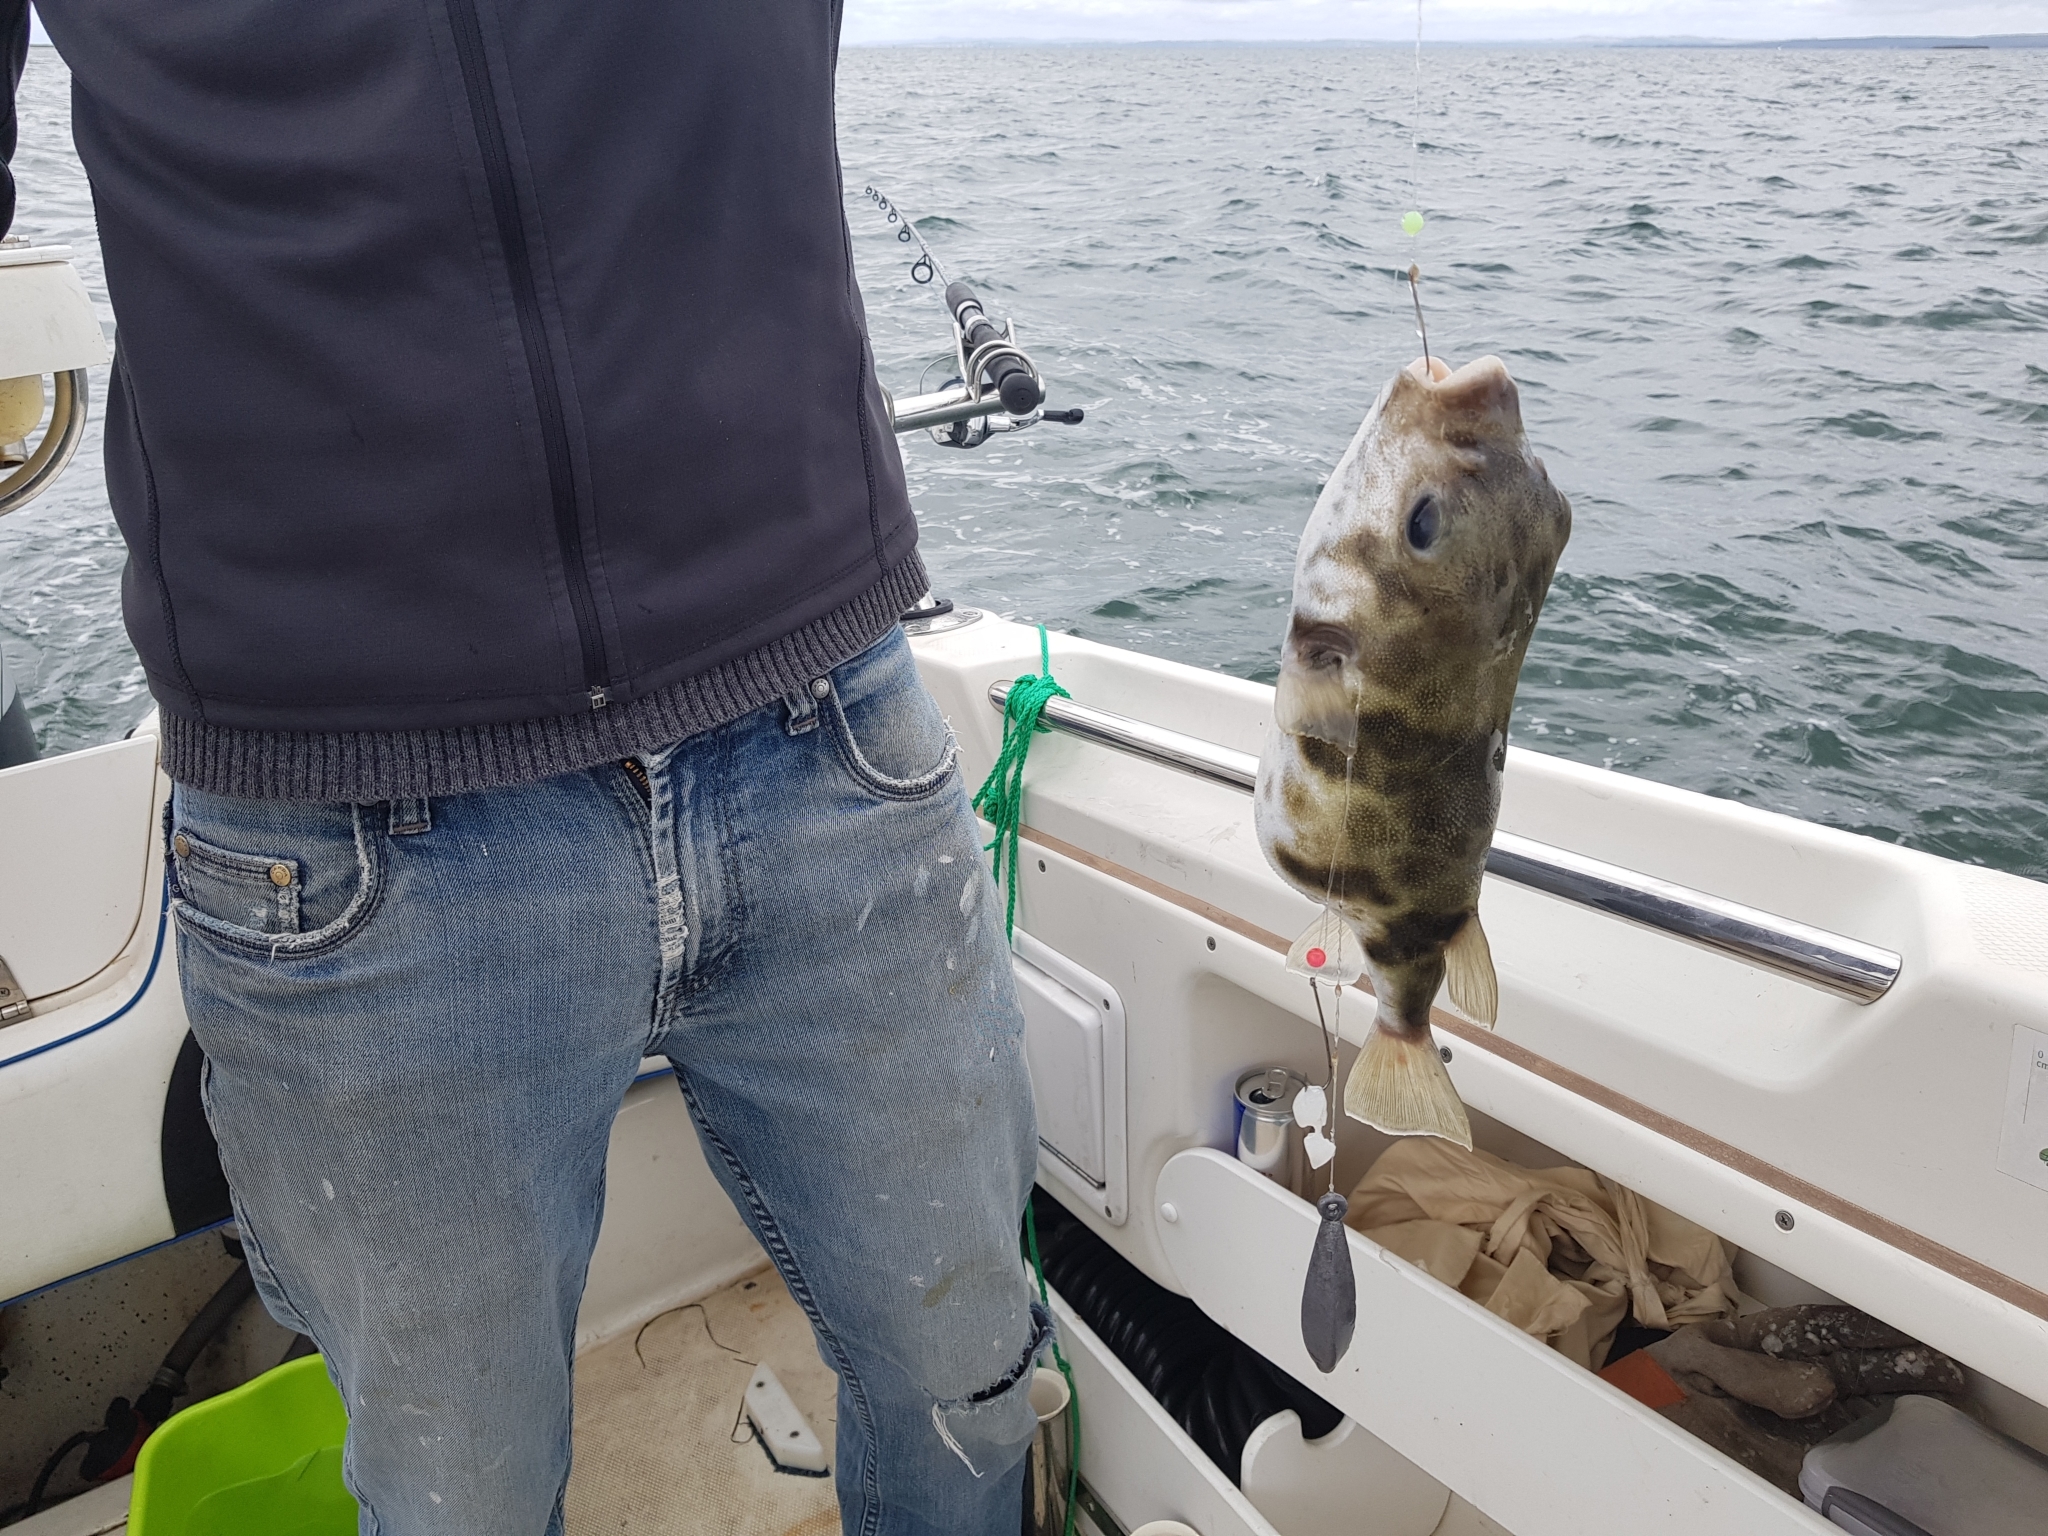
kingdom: Animalia
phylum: Chordata
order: Tetraodontiformes
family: Tetraodontidae
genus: Contusus
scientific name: Contusus brevicaudus
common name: Prickly toadfish
